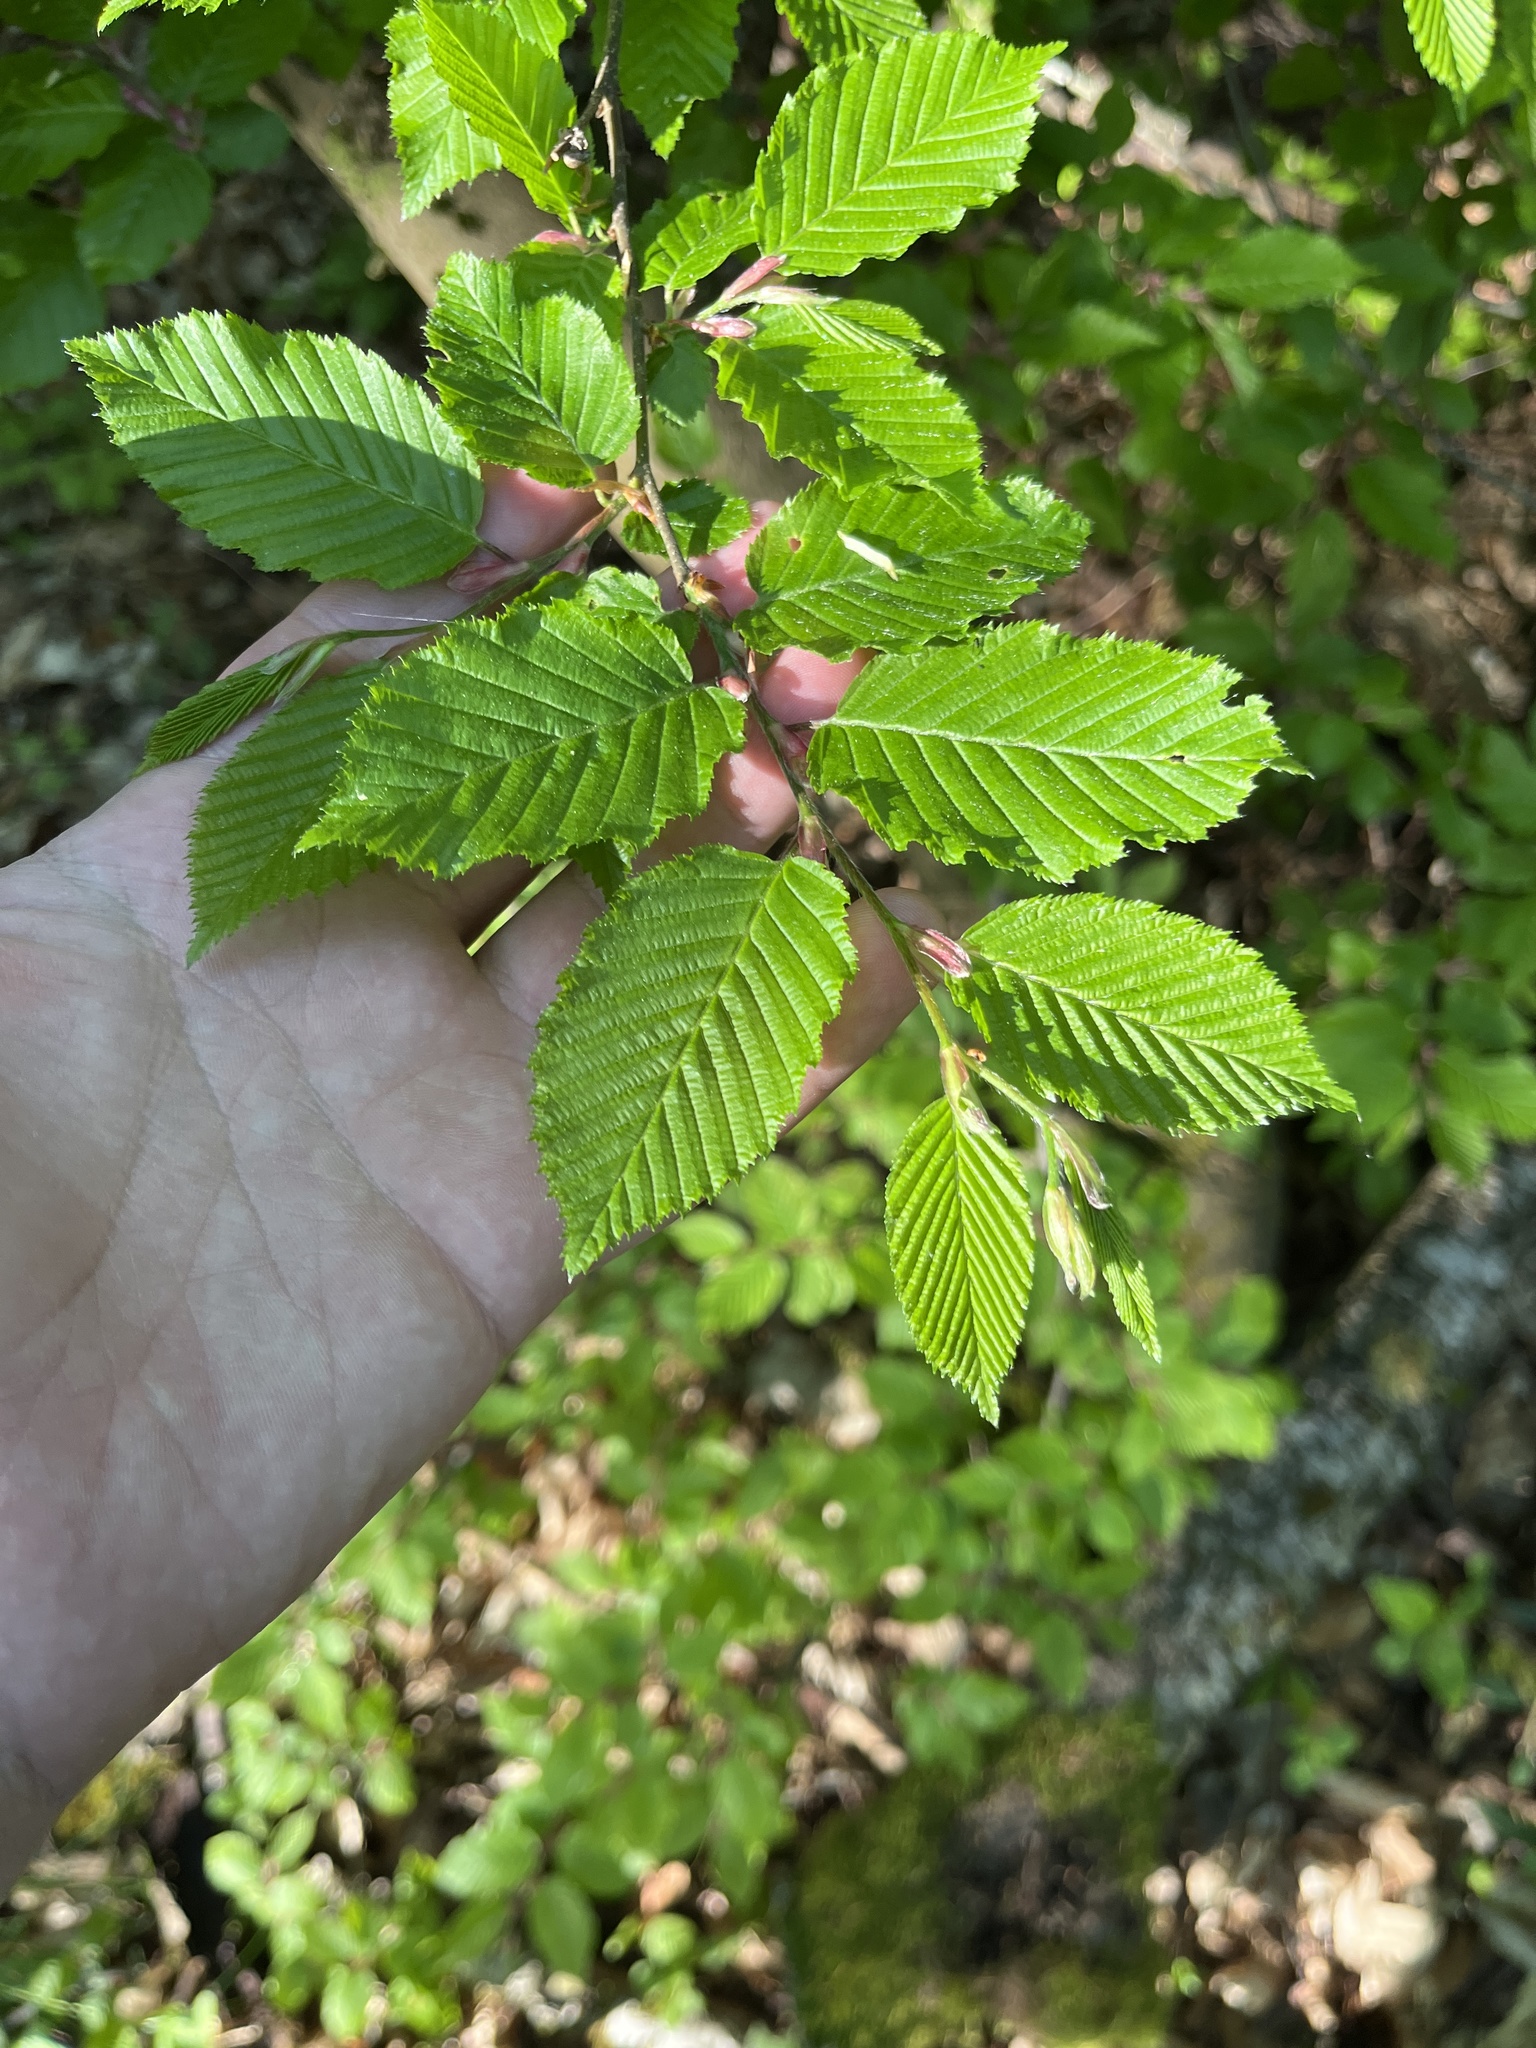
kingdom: Plantae
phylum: Tracheophyta
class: Magnoliopsida
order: Fagales
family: Betulaceae
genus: Carpinus
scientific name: Carpinus betulus
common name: Hornbeam
